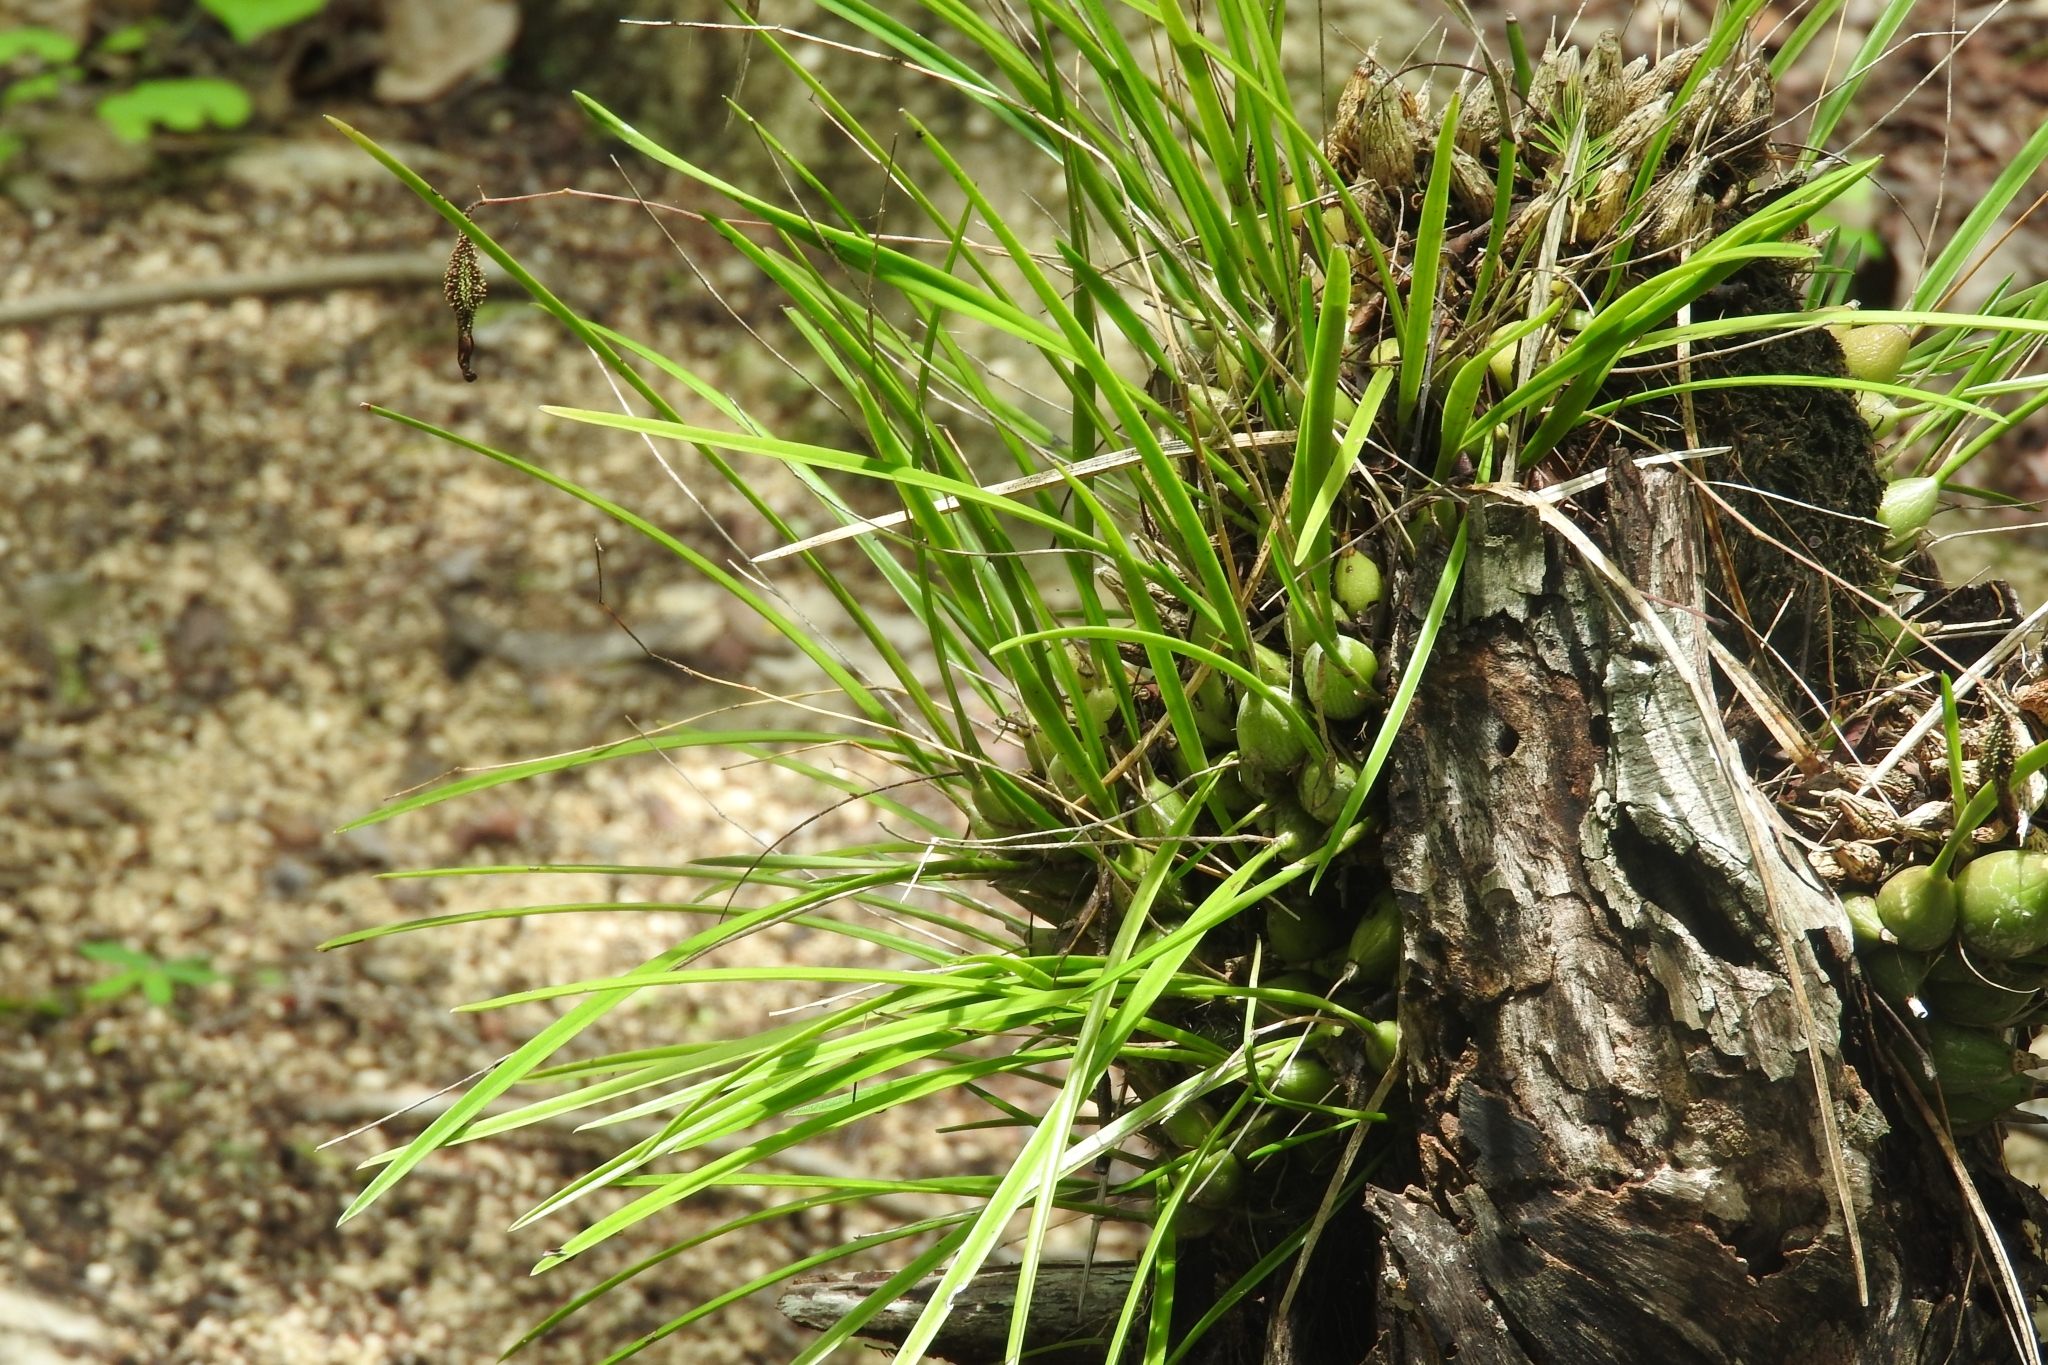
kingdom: Plantae
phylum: Tracheophyta
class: Liliopsida
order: Asparagales
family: Orchidaceae
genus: Encyclia
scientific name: Encyclia nematocaulon
